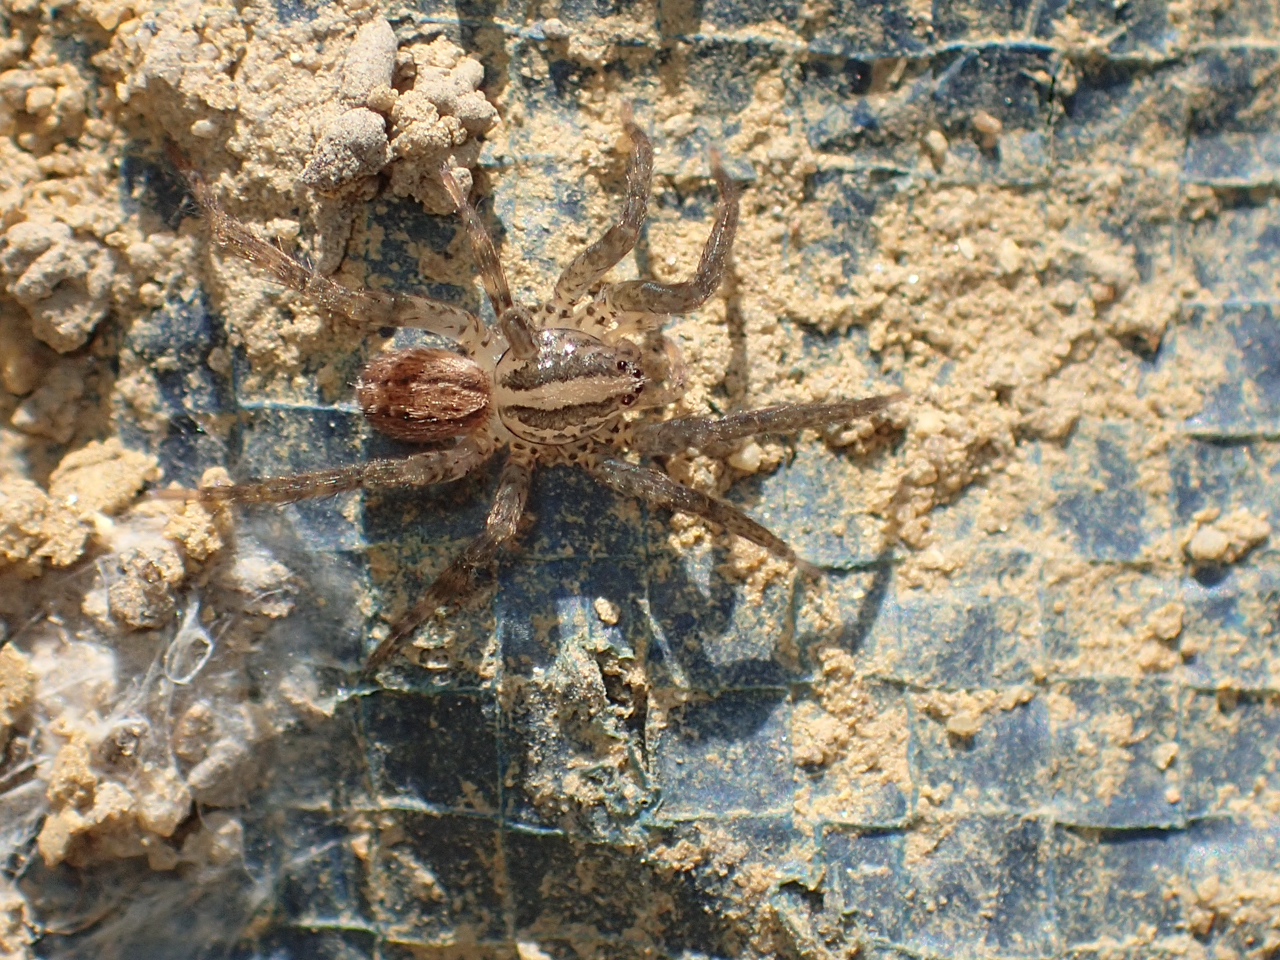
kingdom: Animalia
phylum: Arthropoda
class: Arachnida
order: Araneae
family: Ctenidae
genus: Anahita
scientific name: Anahita punctulata
